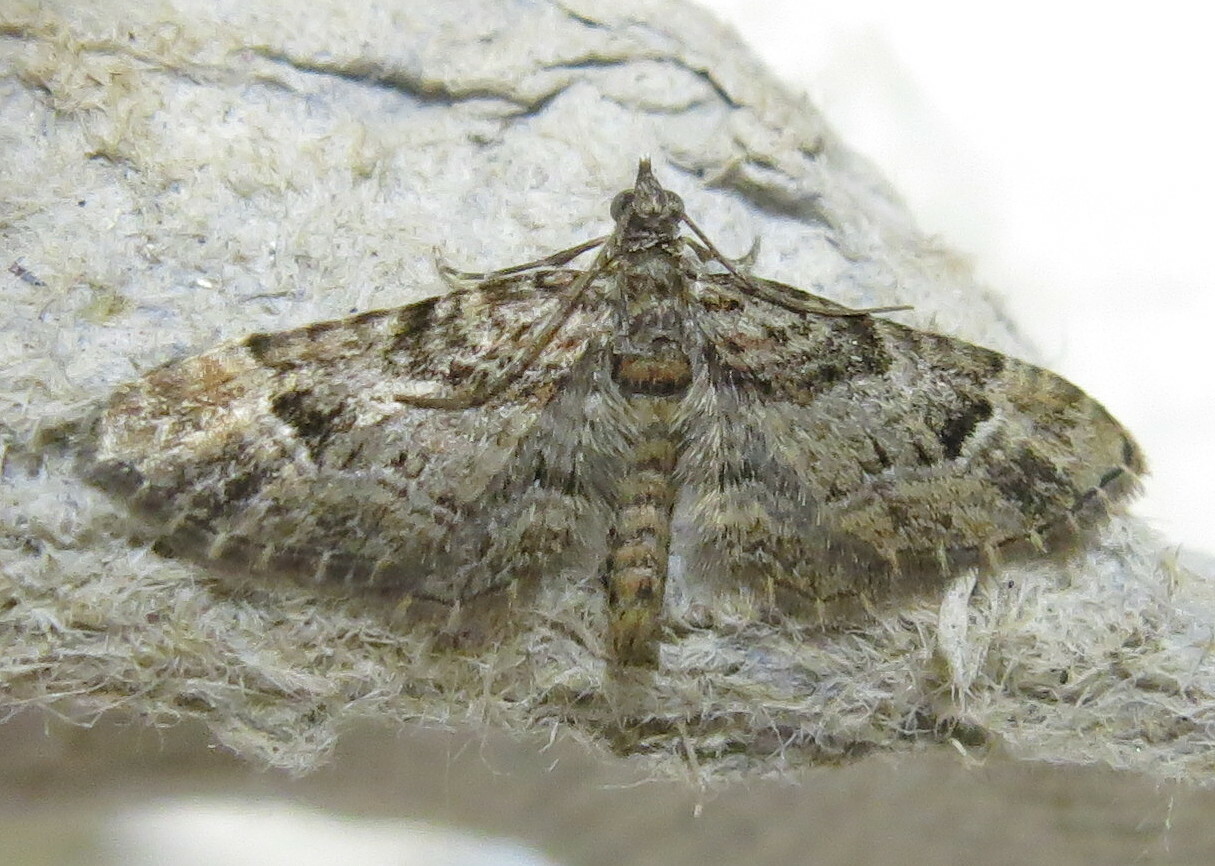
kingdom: Animalia
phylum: Arthropoda
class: Insecta
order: Lepidoptera
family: Geometridae
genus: Gymnoscelis
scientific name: Gymnoscelis rufifasciata
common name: Double-striped pug
